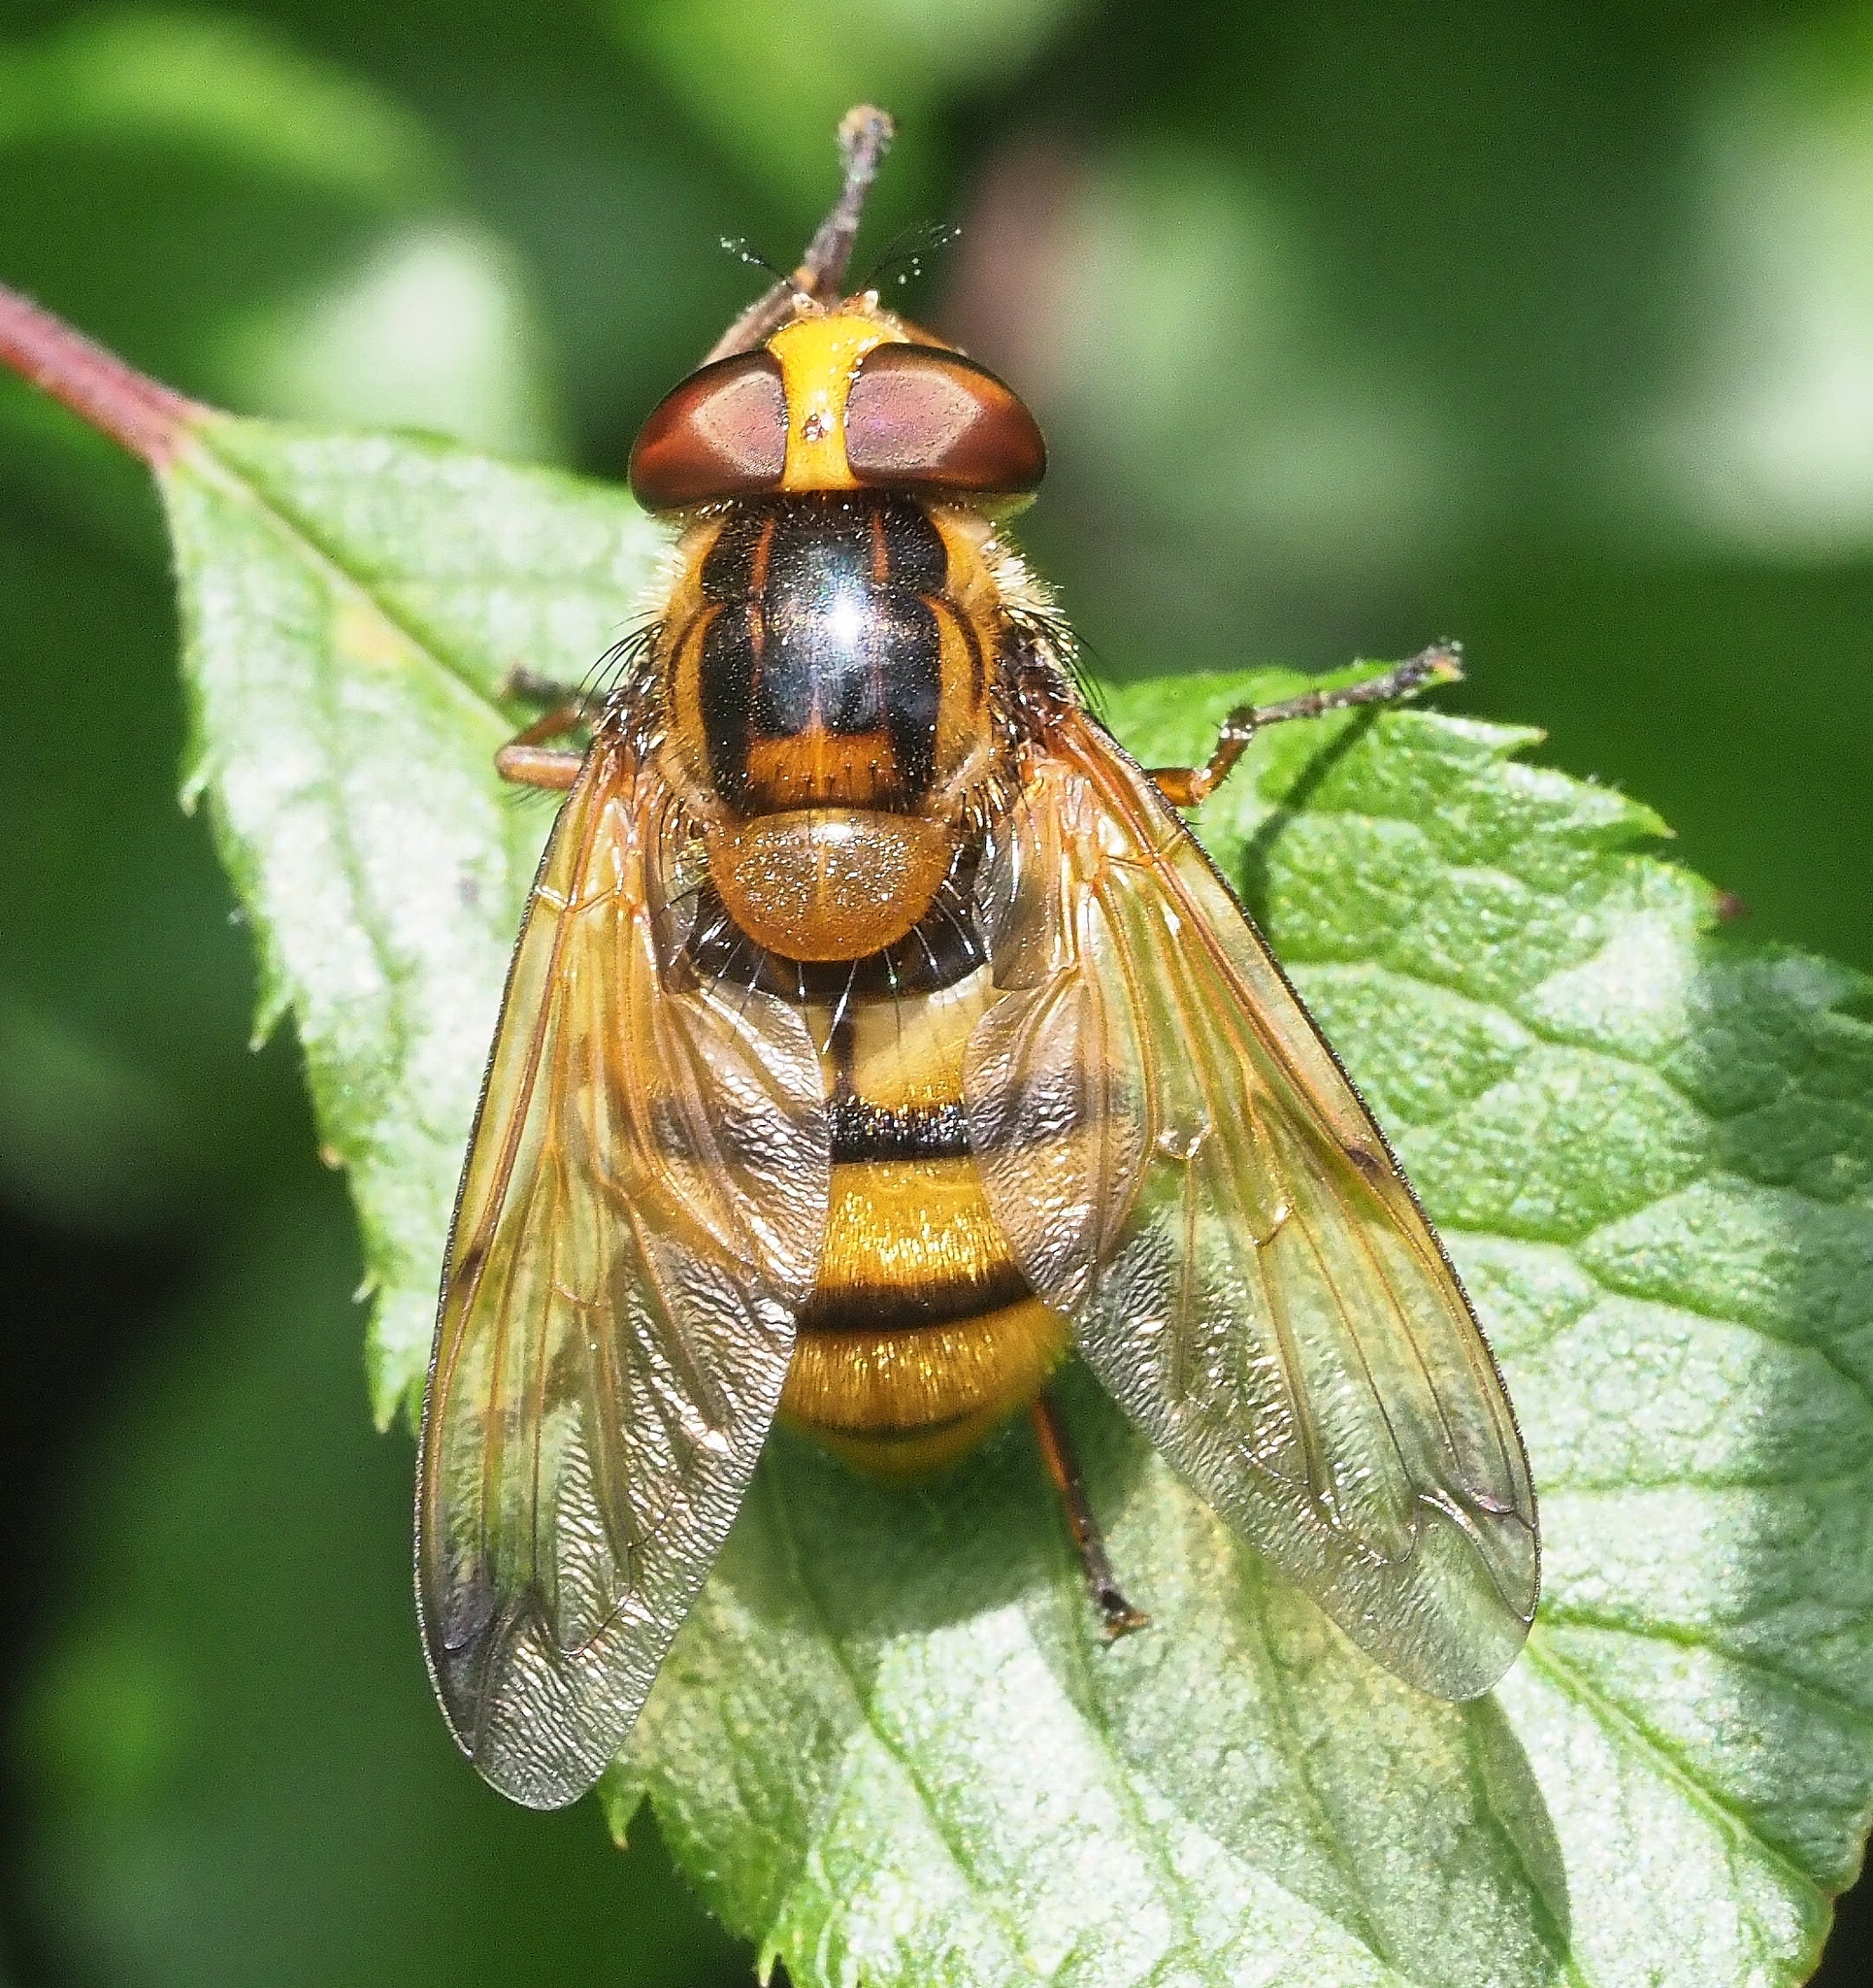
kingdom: Animalia
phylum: Arthropoda
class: Insecta
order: Diptera
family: Syrphidae
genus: Volucella
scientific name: Volucella inanis
